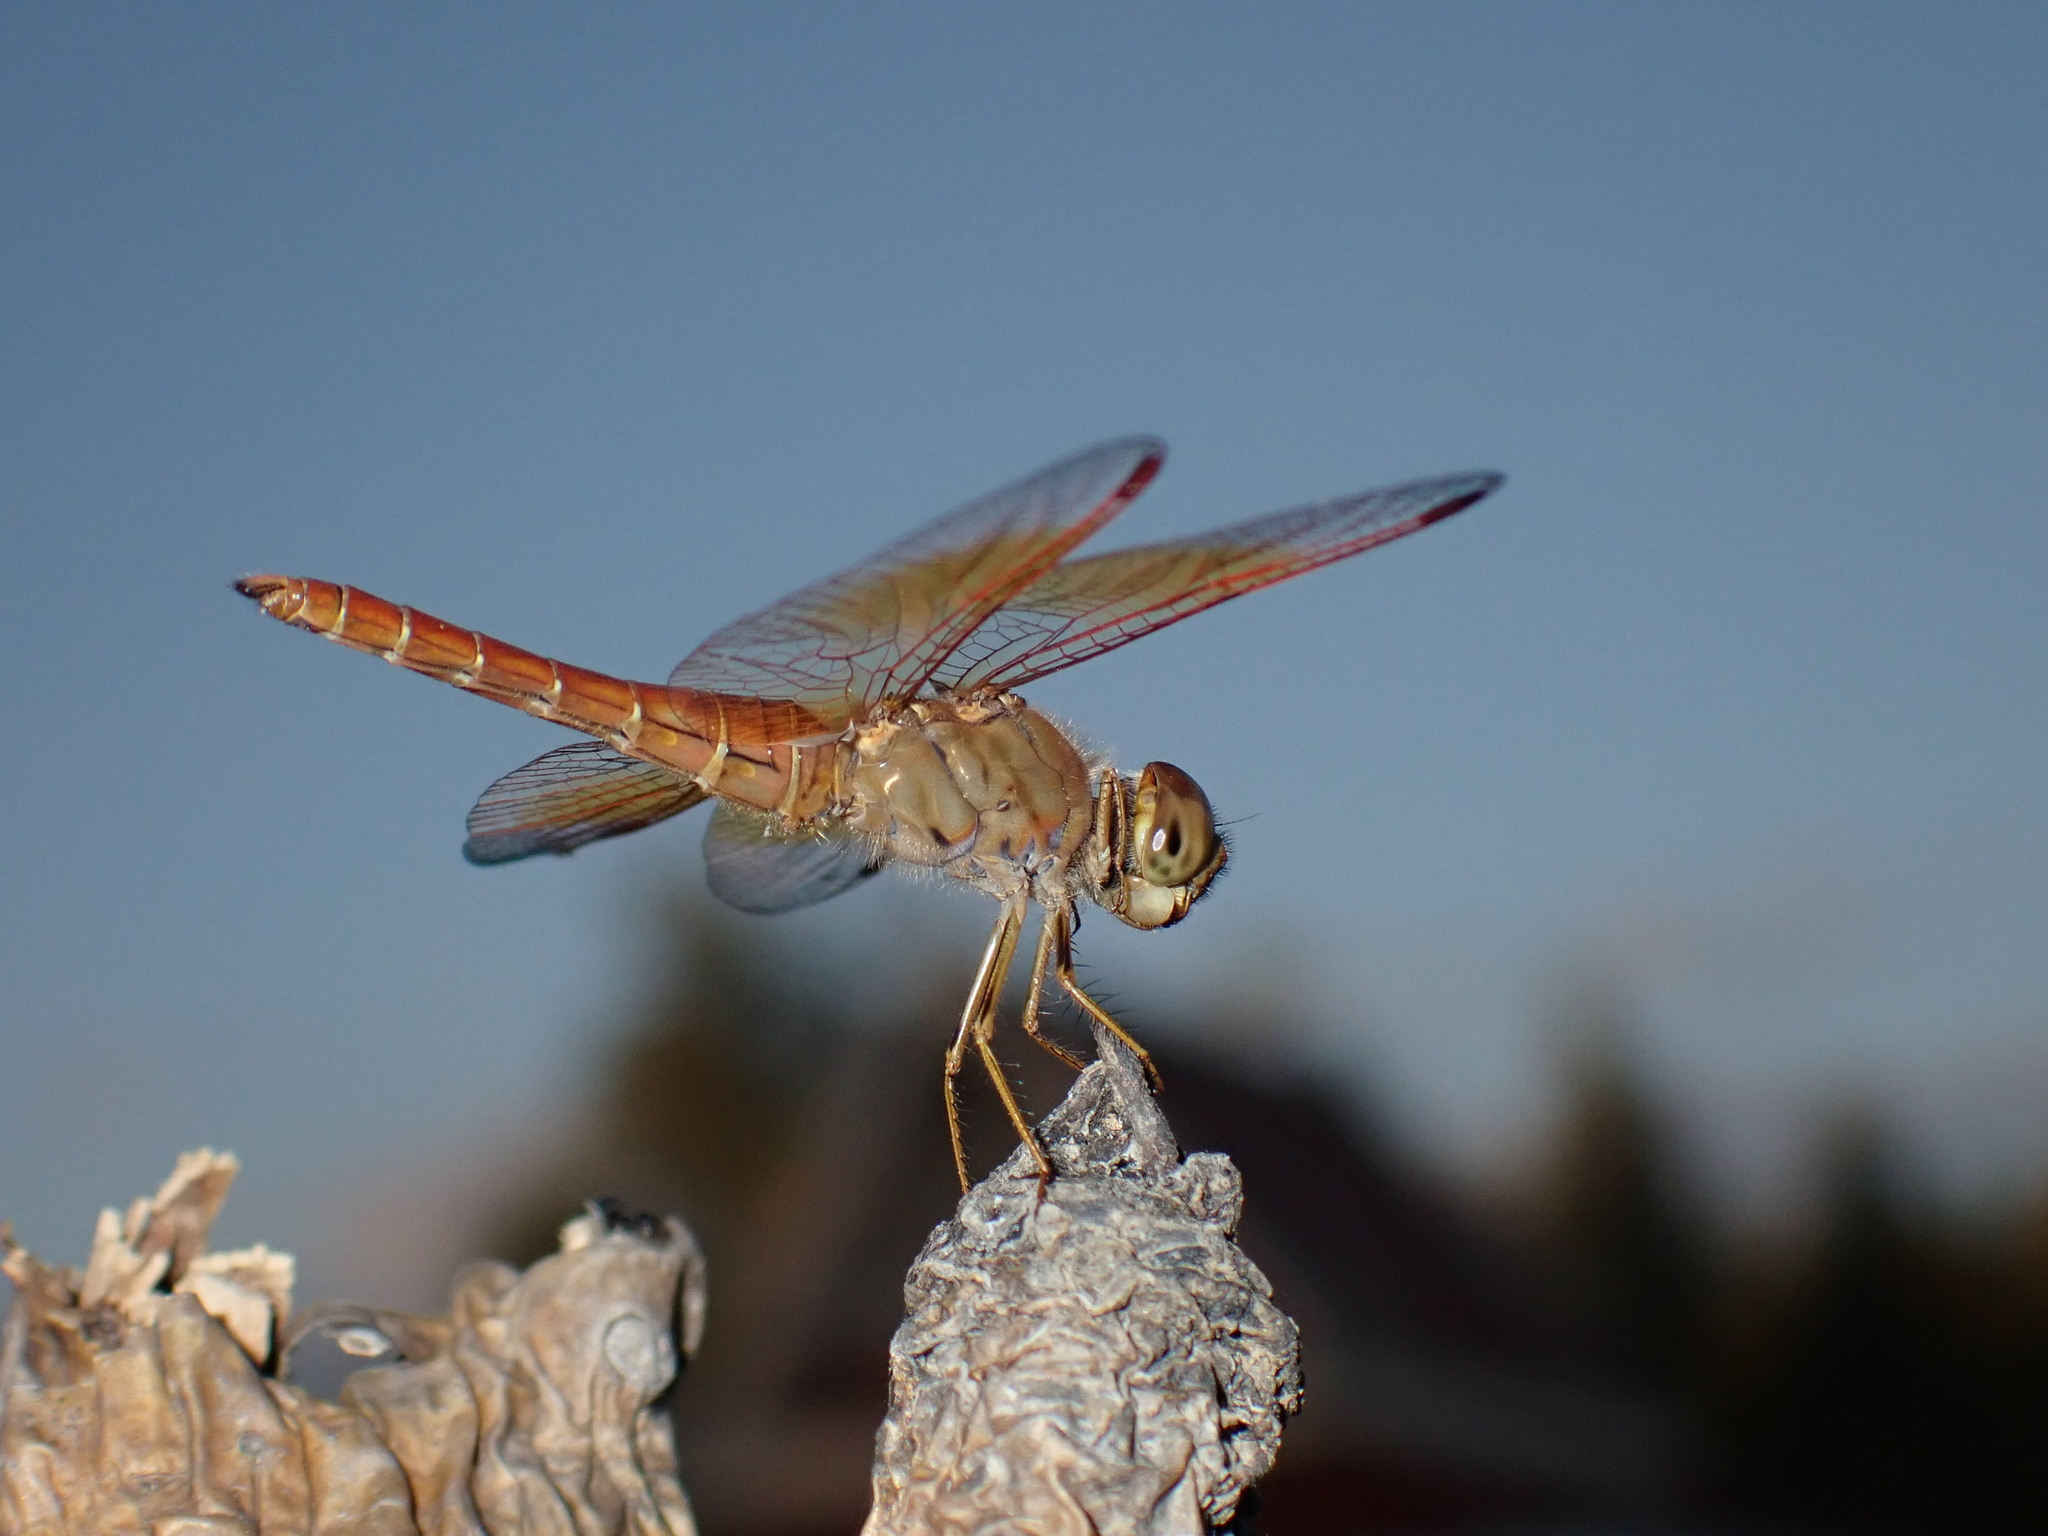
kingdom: Animalia
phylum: Arthropoda
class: Insecta
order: Odonata
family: Libellulidae
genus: Brachythemis
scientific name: Brachythemis contaminata
